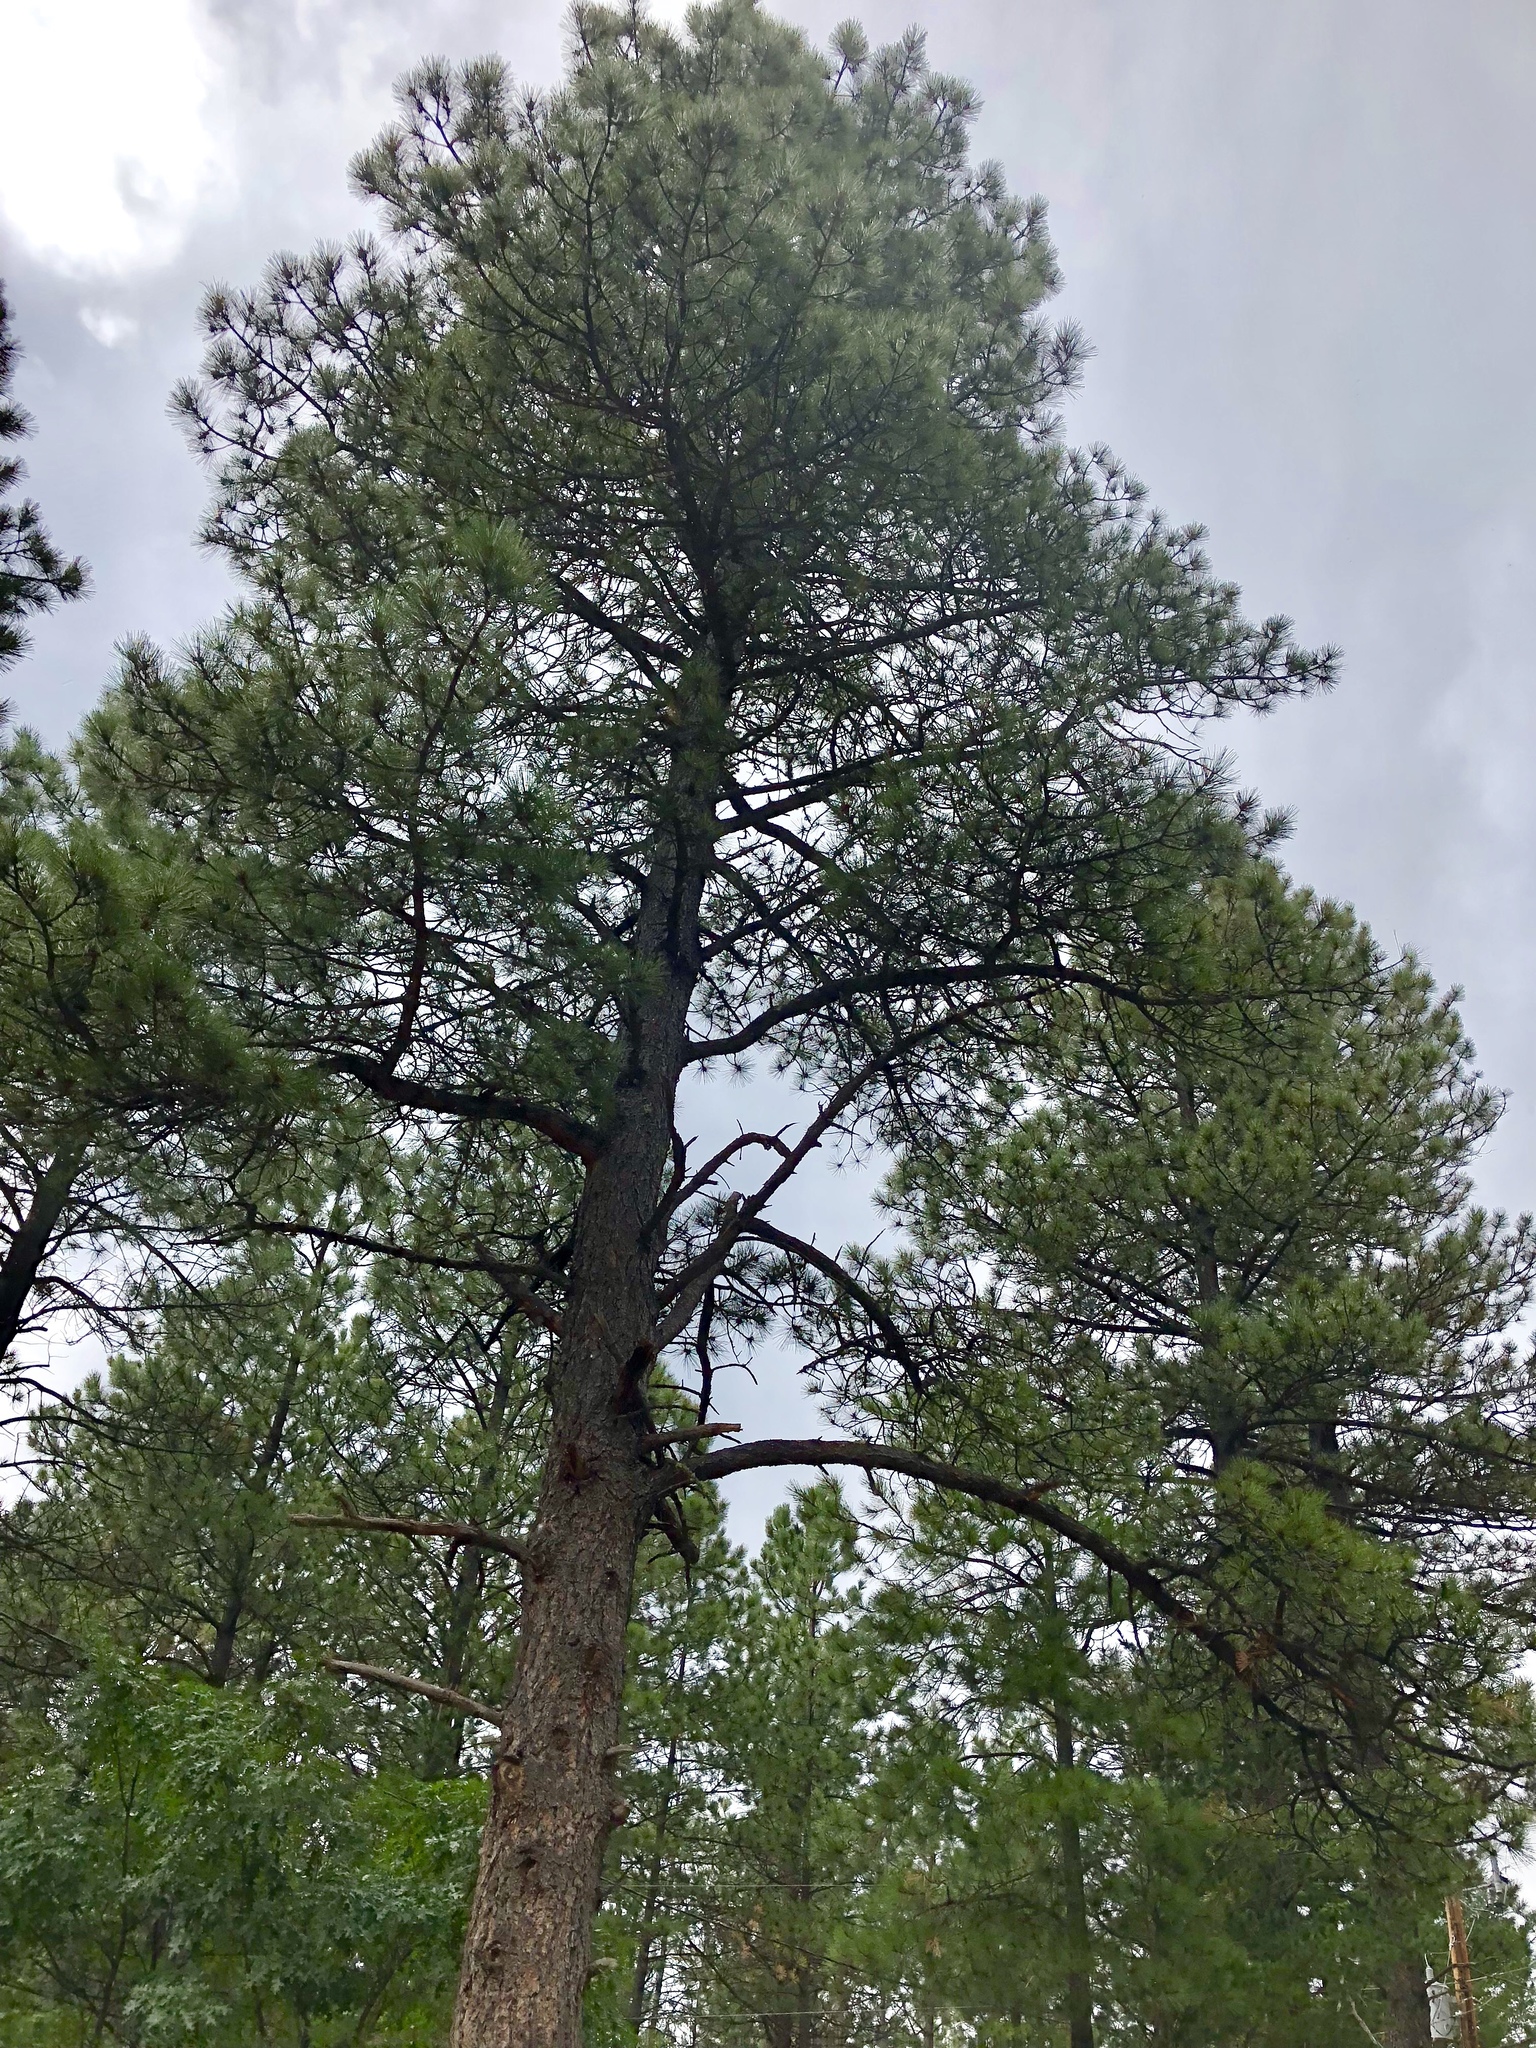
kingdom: Plantae
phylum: Tracheophyta
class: Pinopsida
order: Pinales
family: Pinaceae
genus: Pinus
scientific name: Pinus ponderosa
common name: Western yellow-pine
